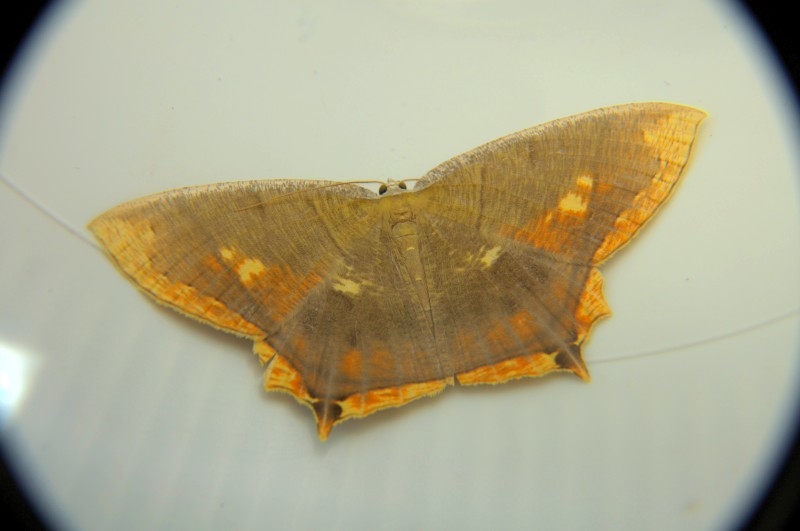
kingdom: Animalia
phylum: Arthropoda
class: Insecta
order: Lepidoptera
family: Geometridae
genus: Thinopteryx
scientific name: Thinopteryx nebulosa
